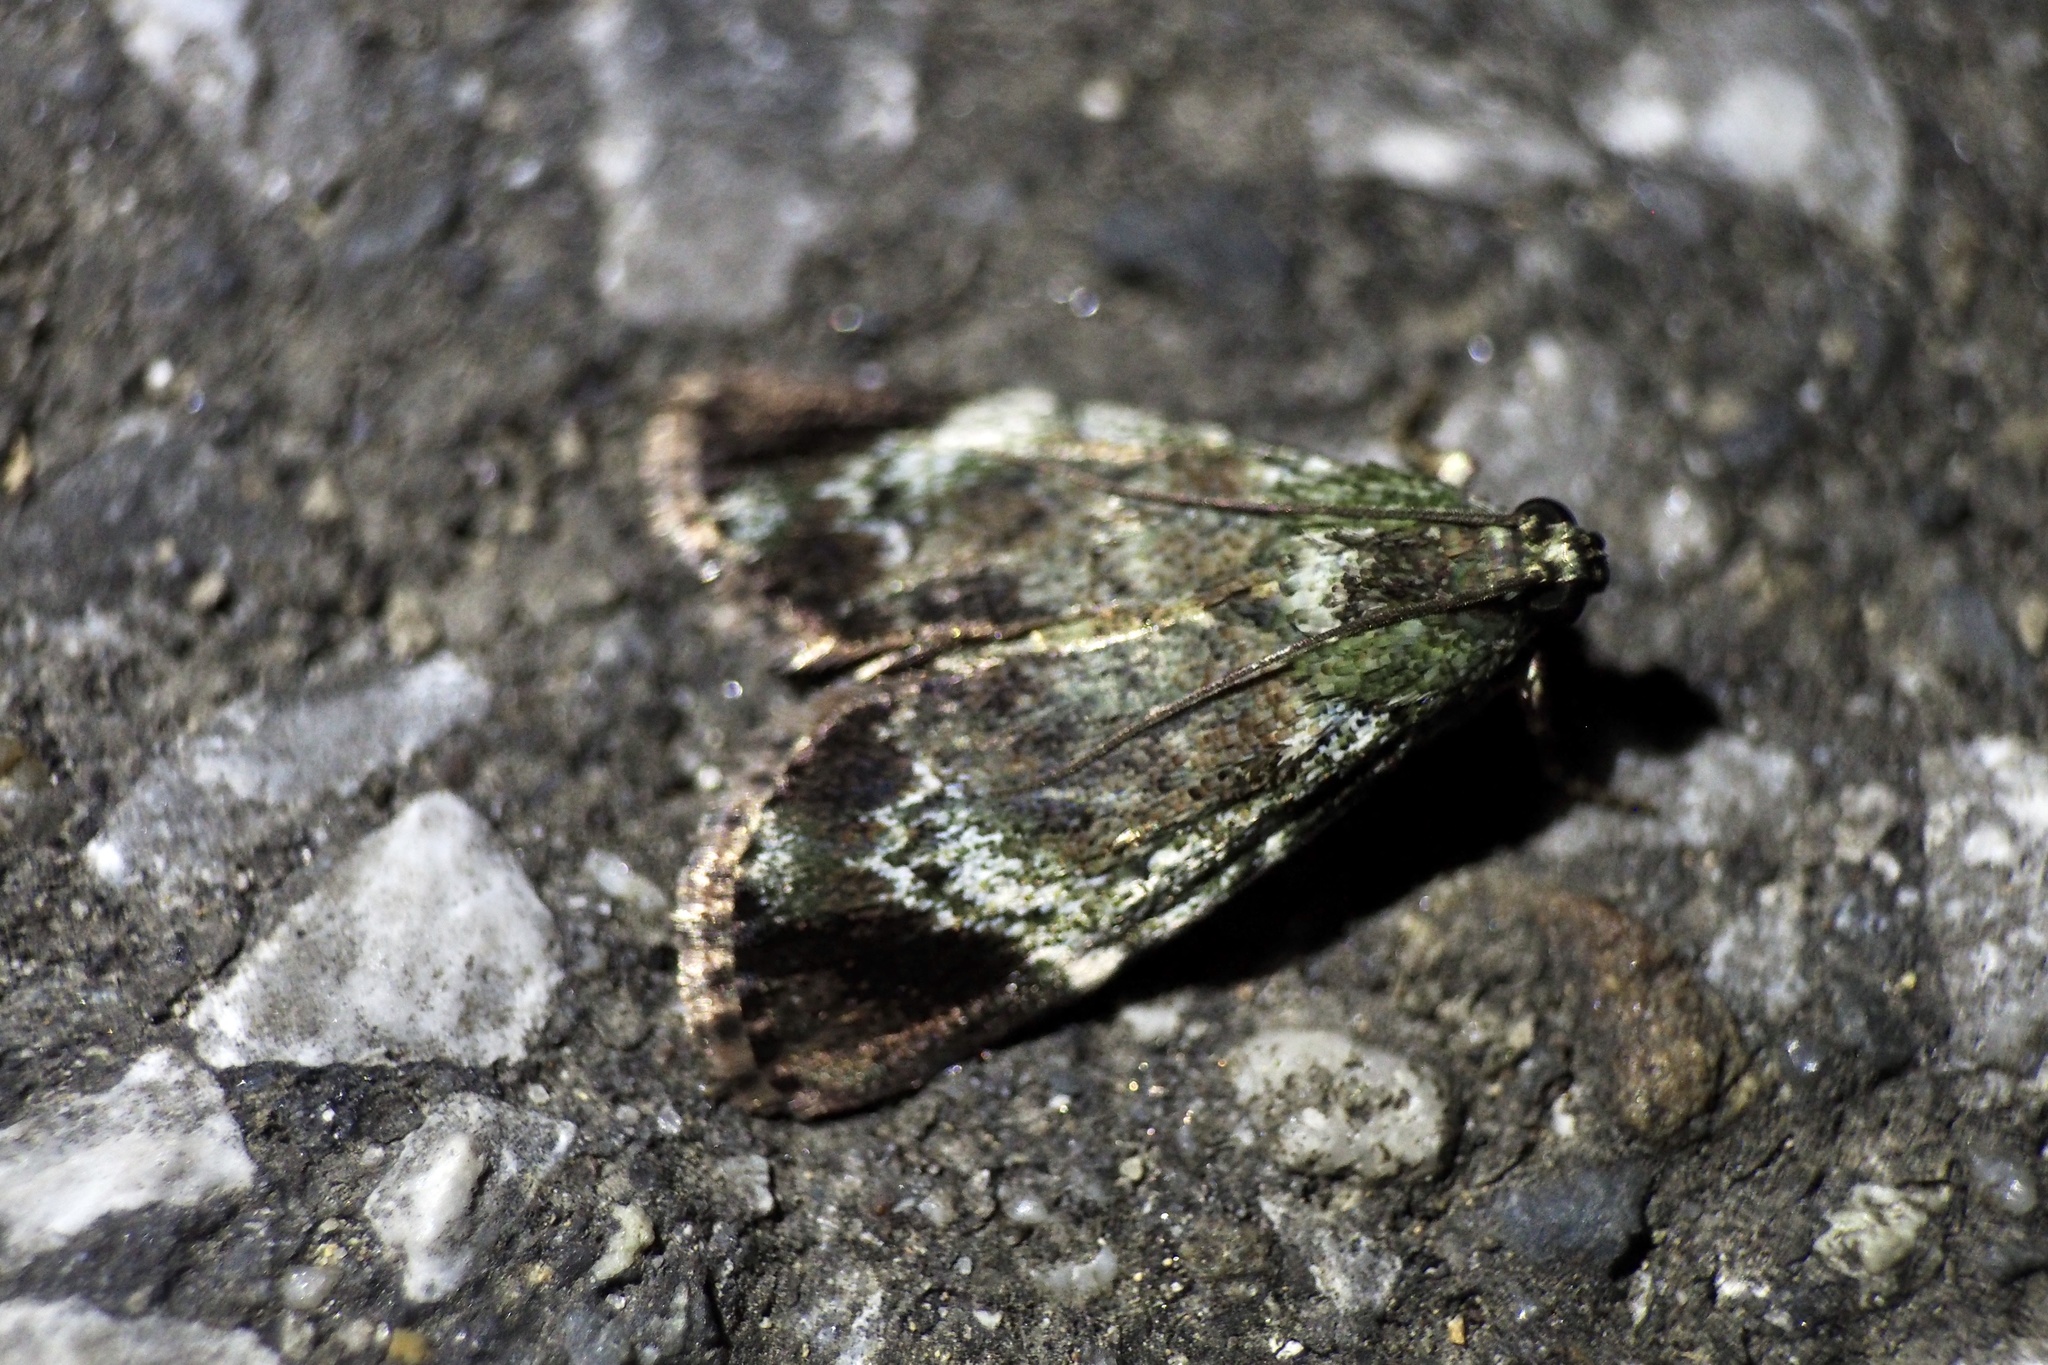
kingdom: Animalia
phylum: Arthropoda
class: Insecta
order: Lepidoptera
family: Pyralidae
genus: Orthaga
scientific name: Orthaga achatina
